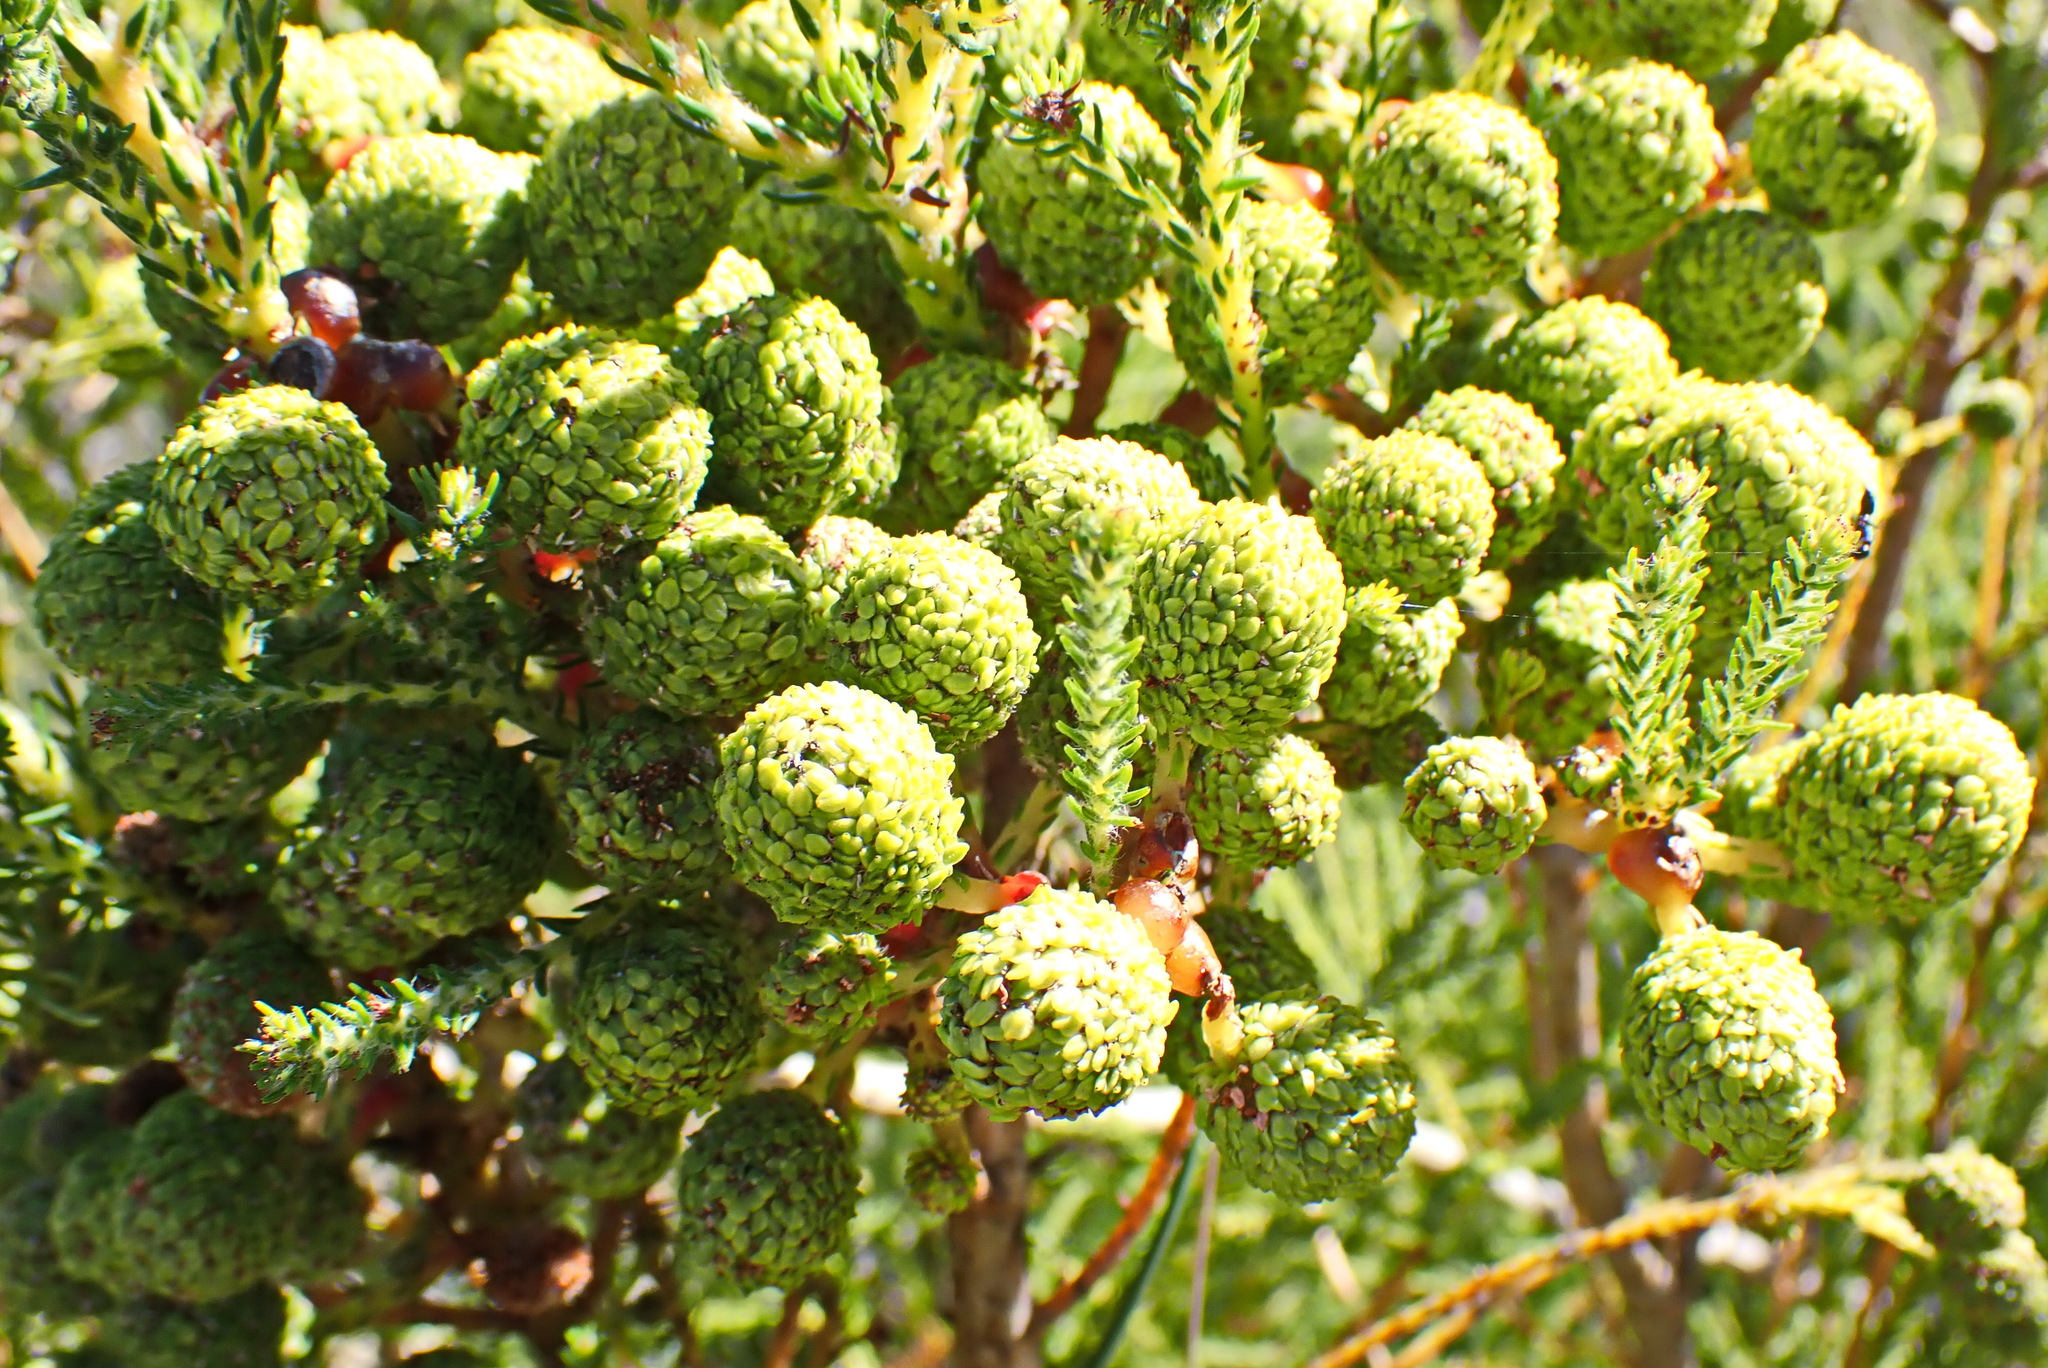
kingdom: Plantae
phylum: Tracheophyta
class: Magnoliopsida
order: Bruniales
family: Bruniaceae
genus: Berzelia
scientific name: Berzelia intermedia
